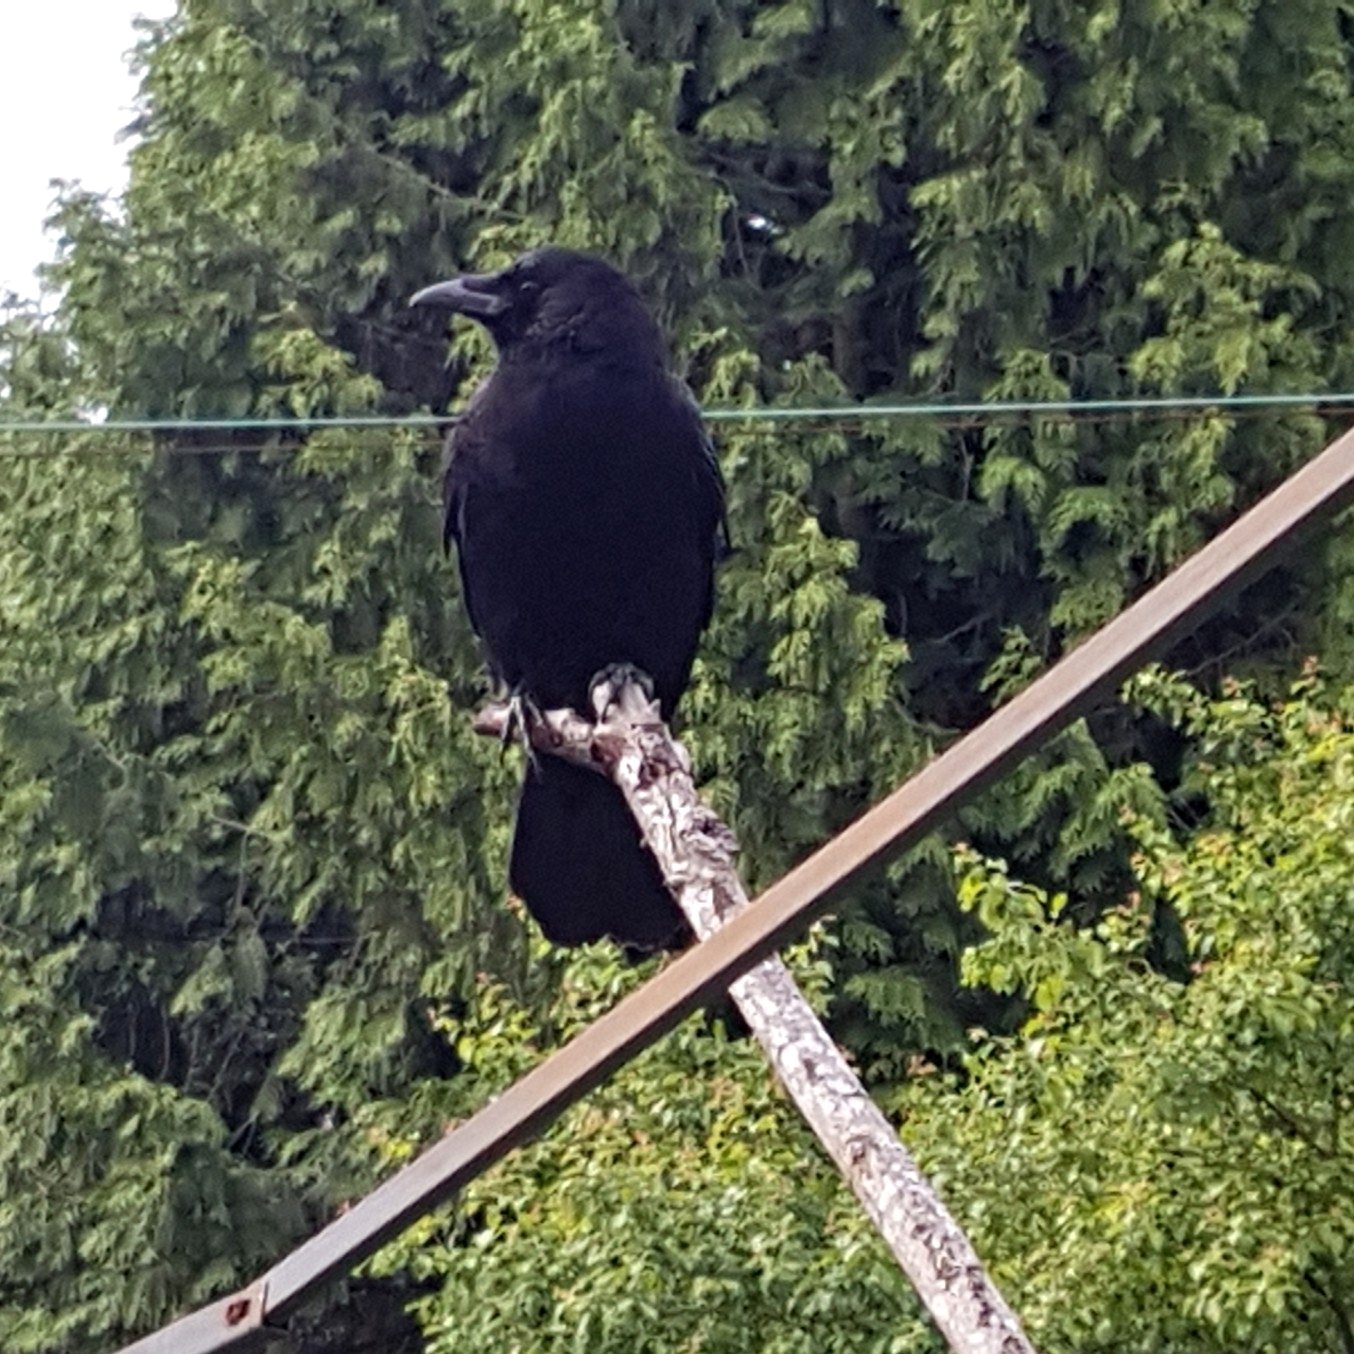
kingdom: Animalia
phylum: Chordata
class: Aves
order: Passeriformes
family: Corvidae
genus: Corvus
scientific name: Corvus brachyrhynchos
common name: American crow
